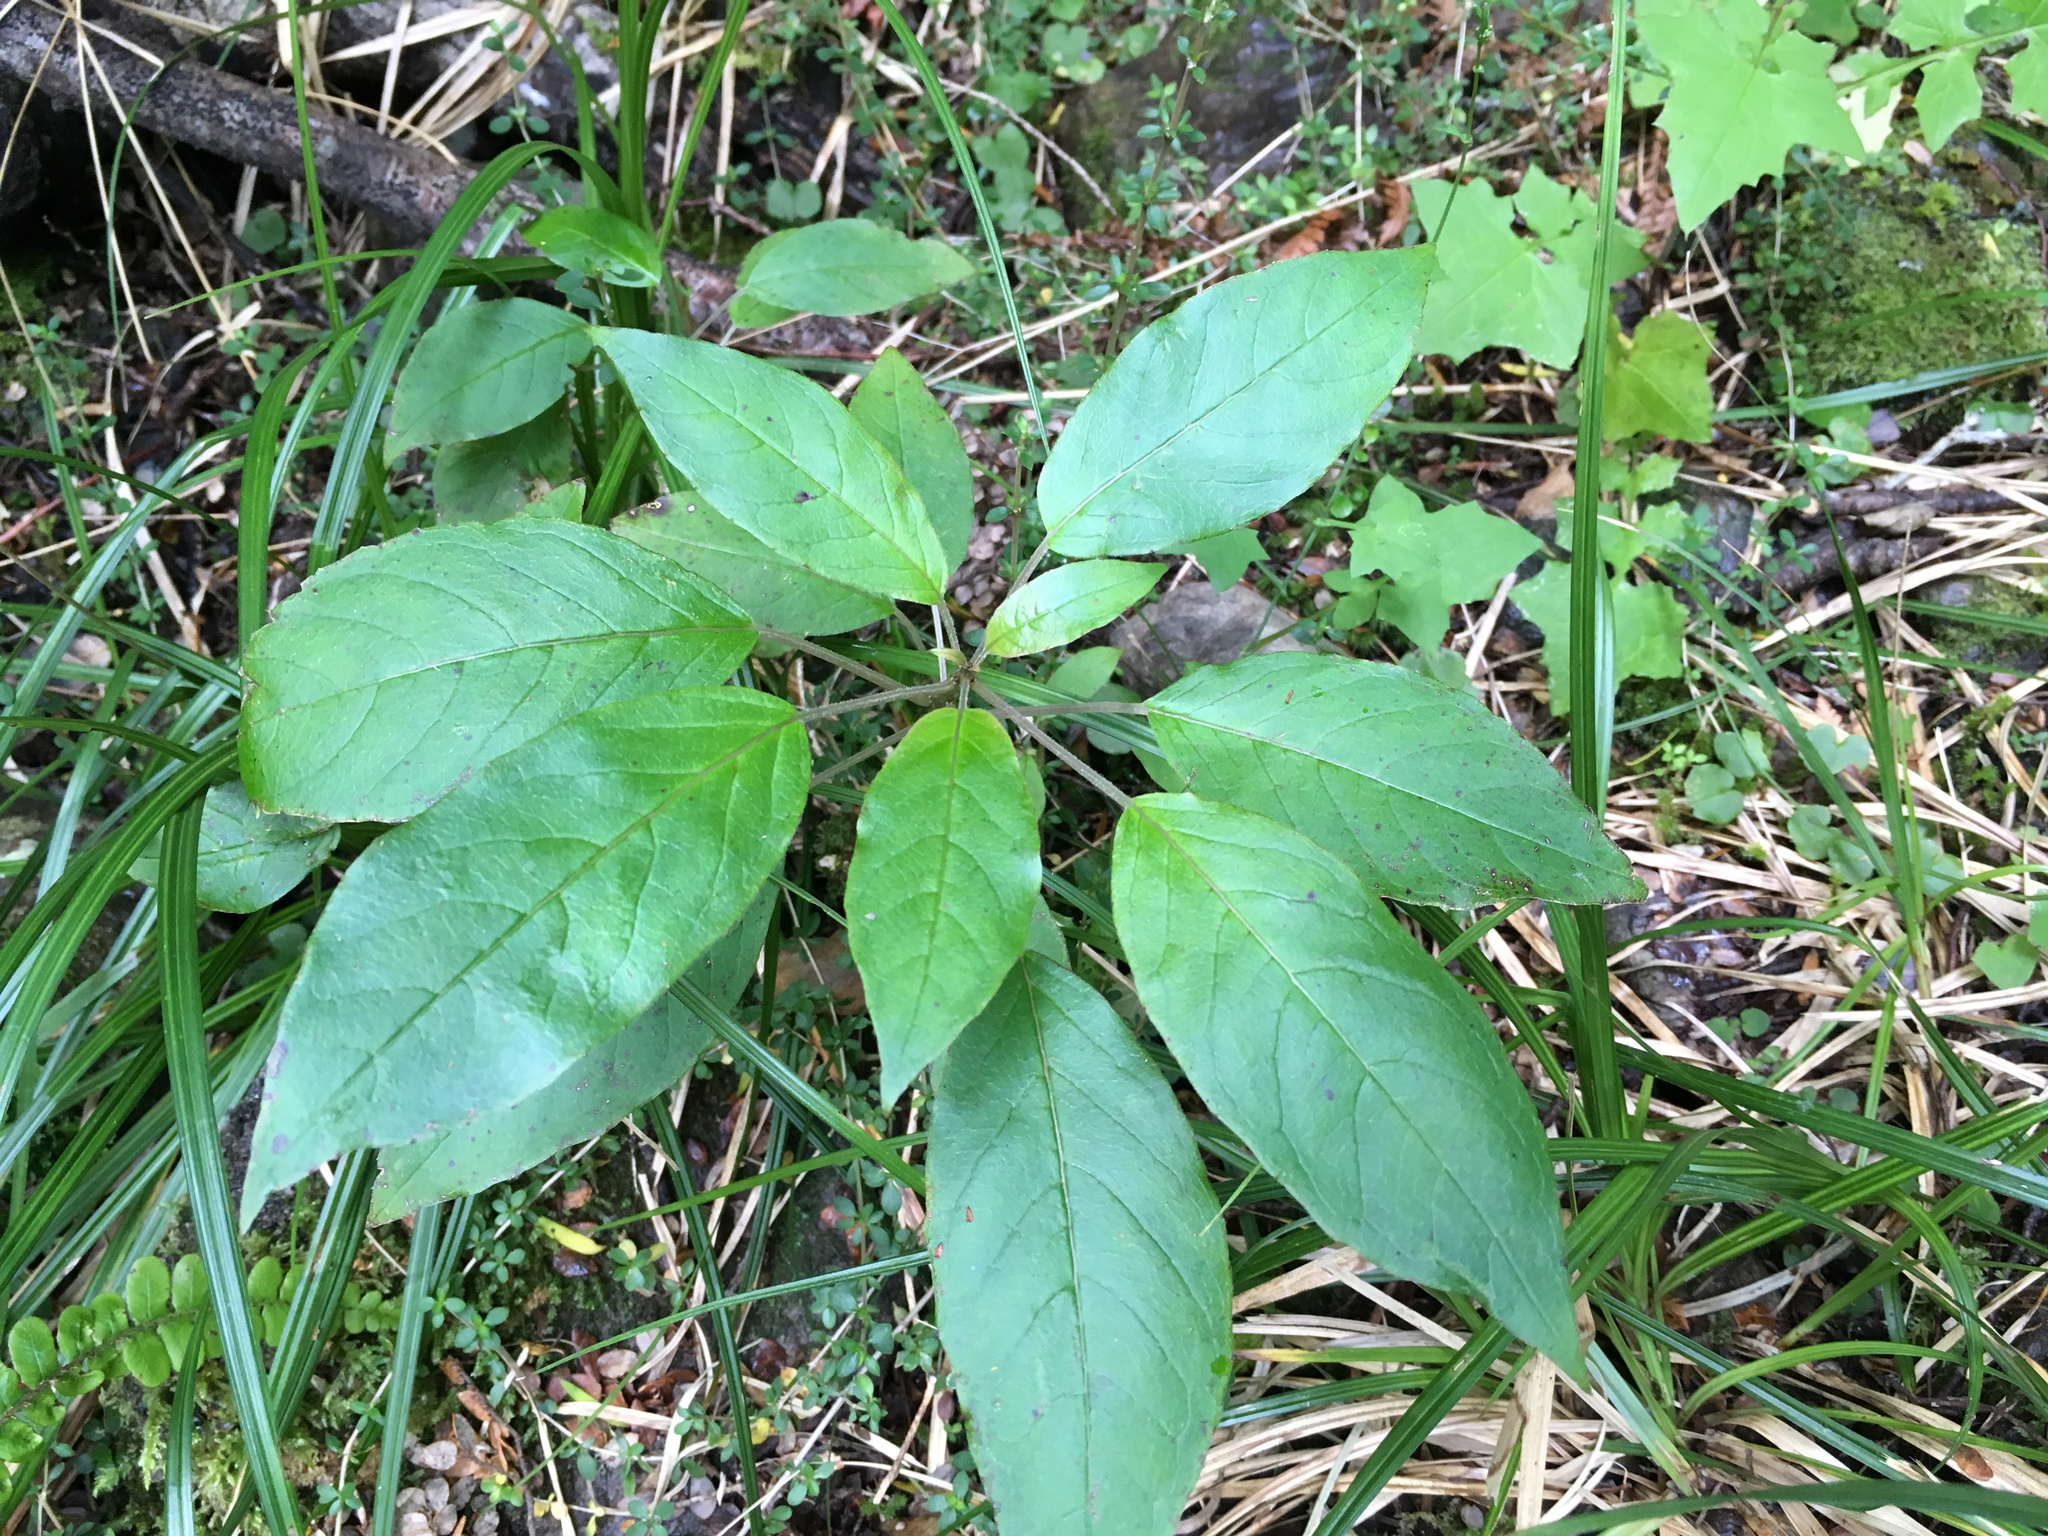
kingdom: Plantae
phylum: Tracheophyta
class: Magnoliopsida
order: Myrtales
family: Onagraceae
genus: Fuchsia
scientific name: Fuchsia excorticata
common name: Tree fuchsia
